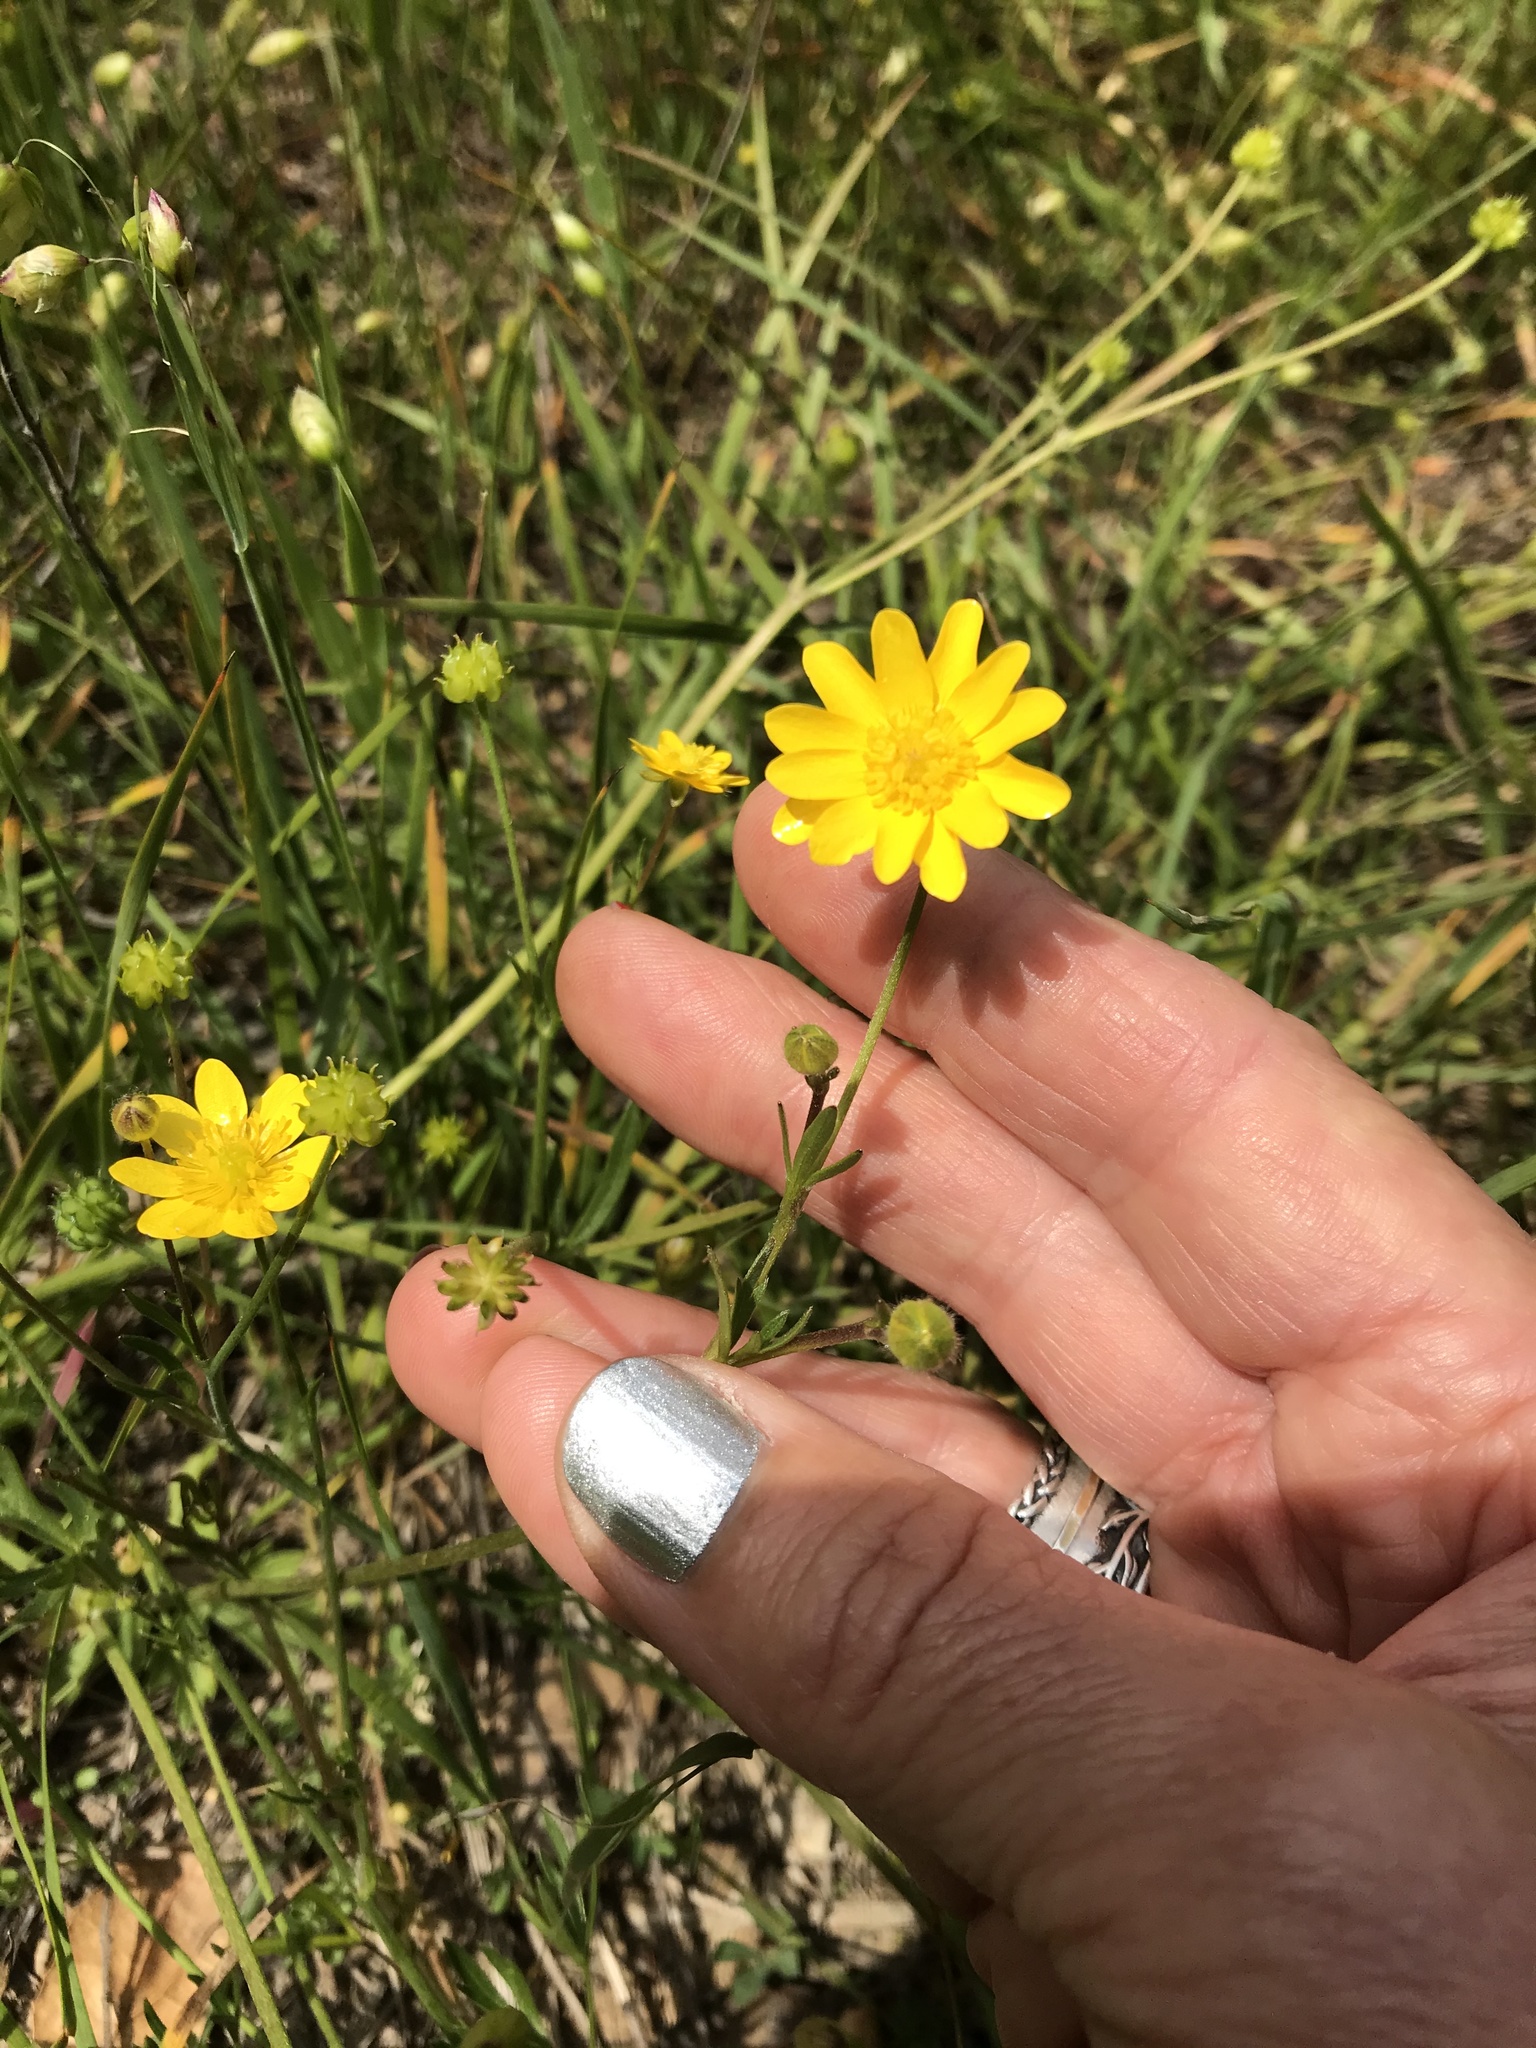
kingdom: Plantae
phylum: Tracheophyta
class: Magnoliopsida
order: Ranunculales
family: Ranunculaceae
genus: Ranunculus
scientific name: Ranunculus californicus
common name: California buttercup
